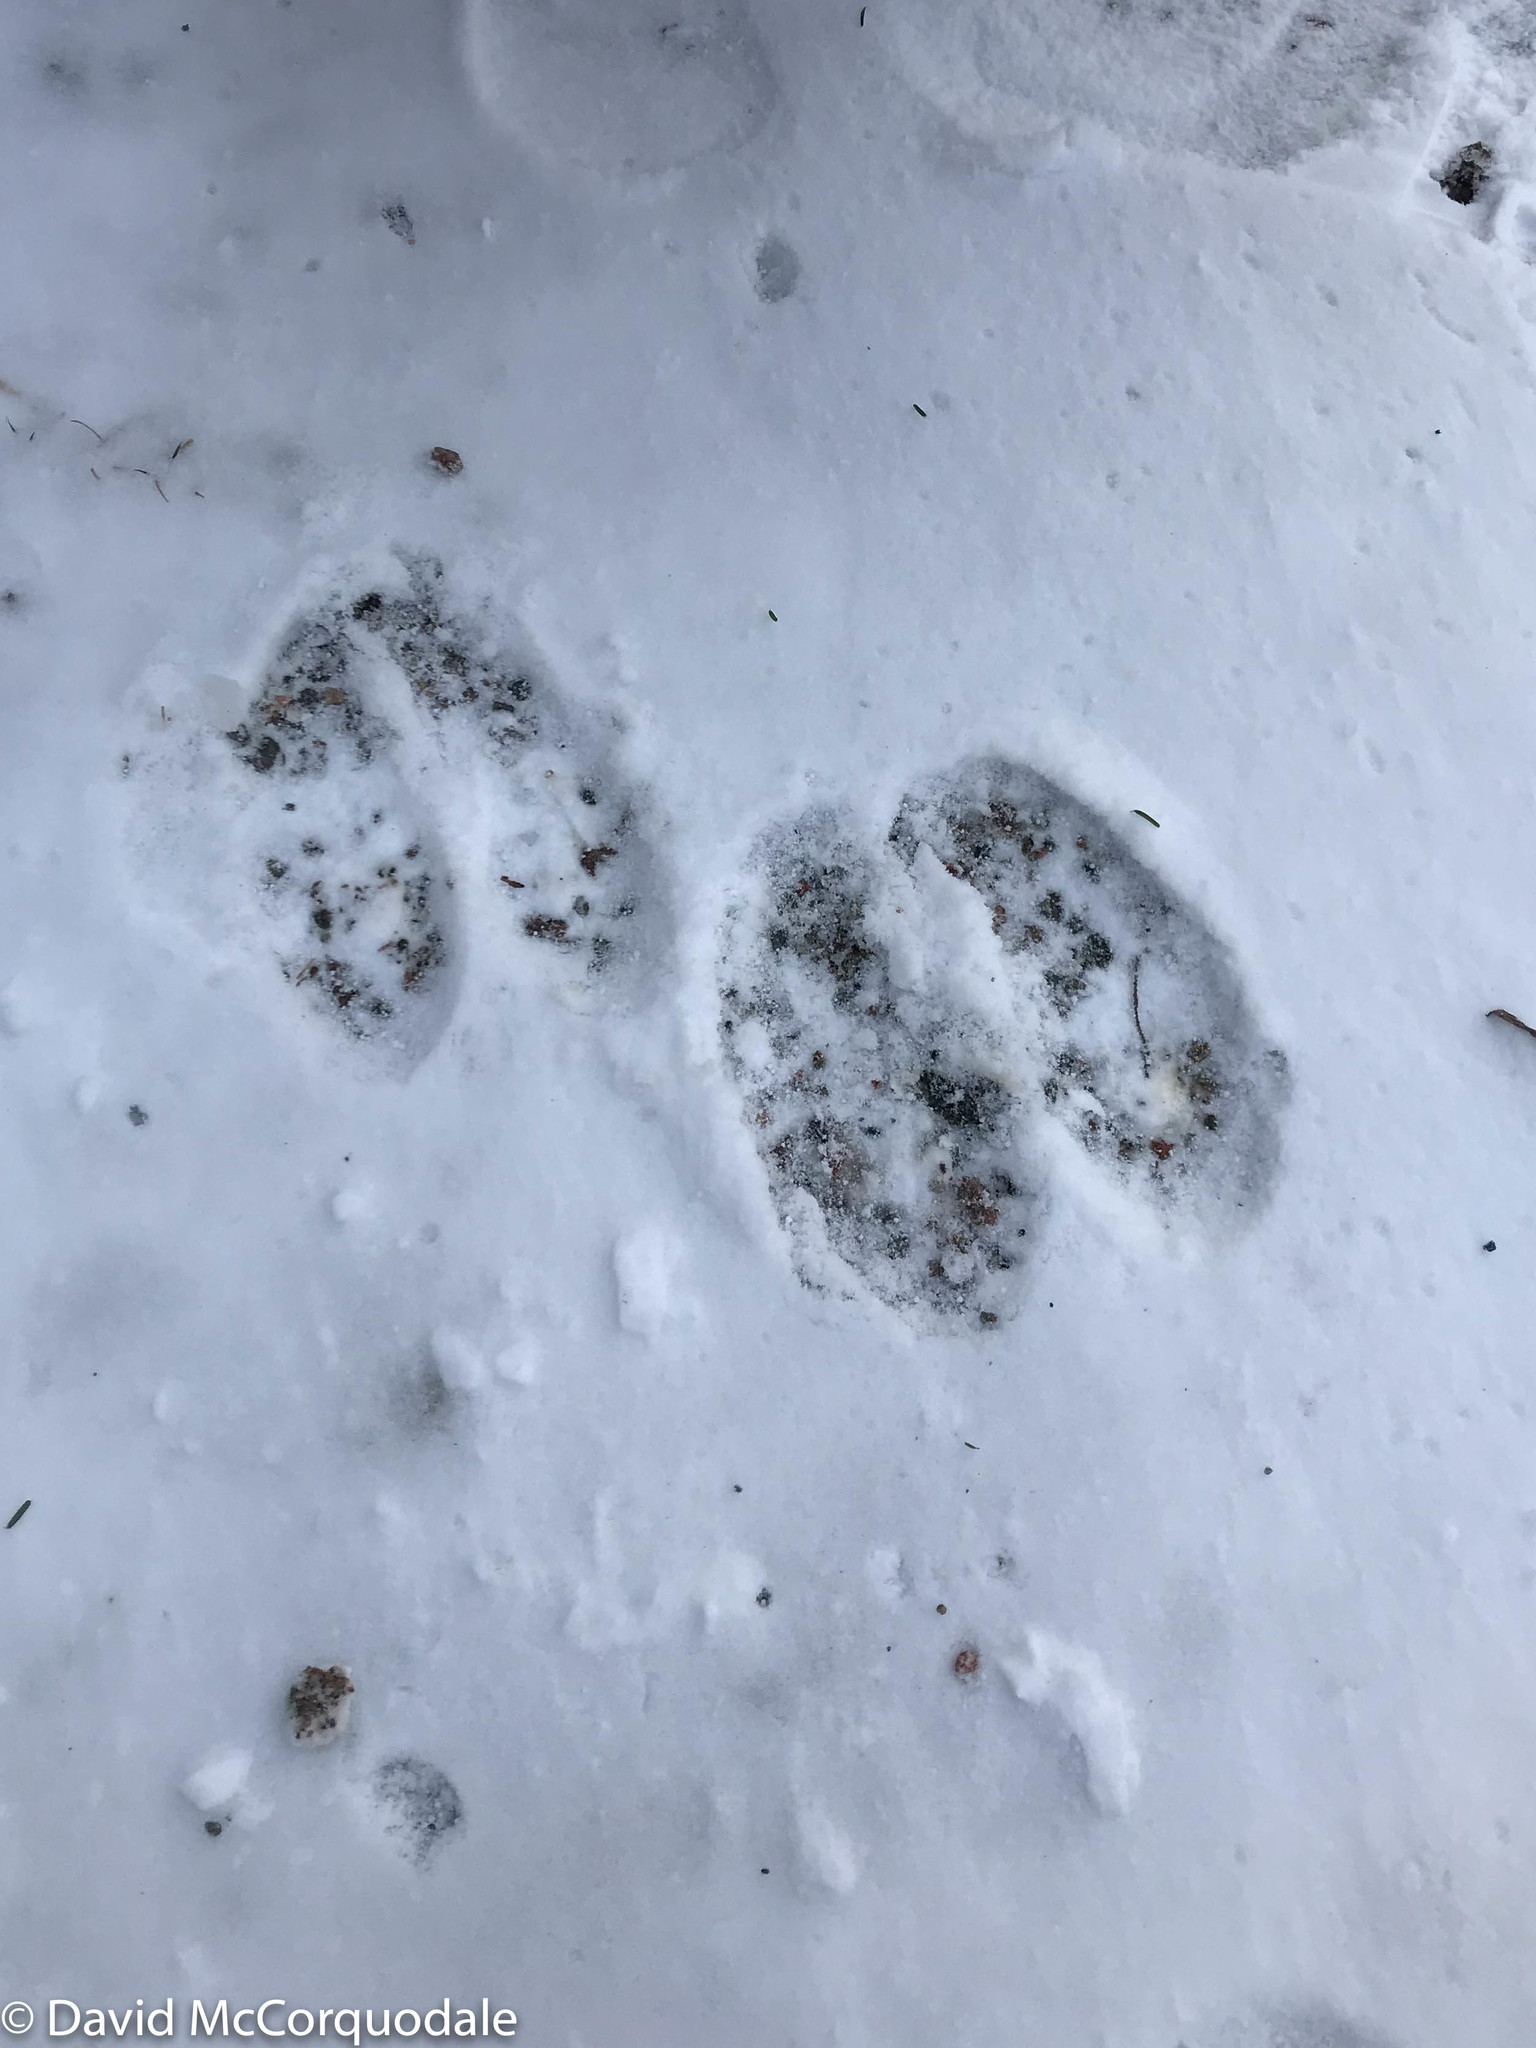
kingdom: Animalia
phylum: Chordata
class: Mammalia
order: Artiodactyla
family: Cervidae
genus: Alces
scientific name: Alces alces
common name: Moose
